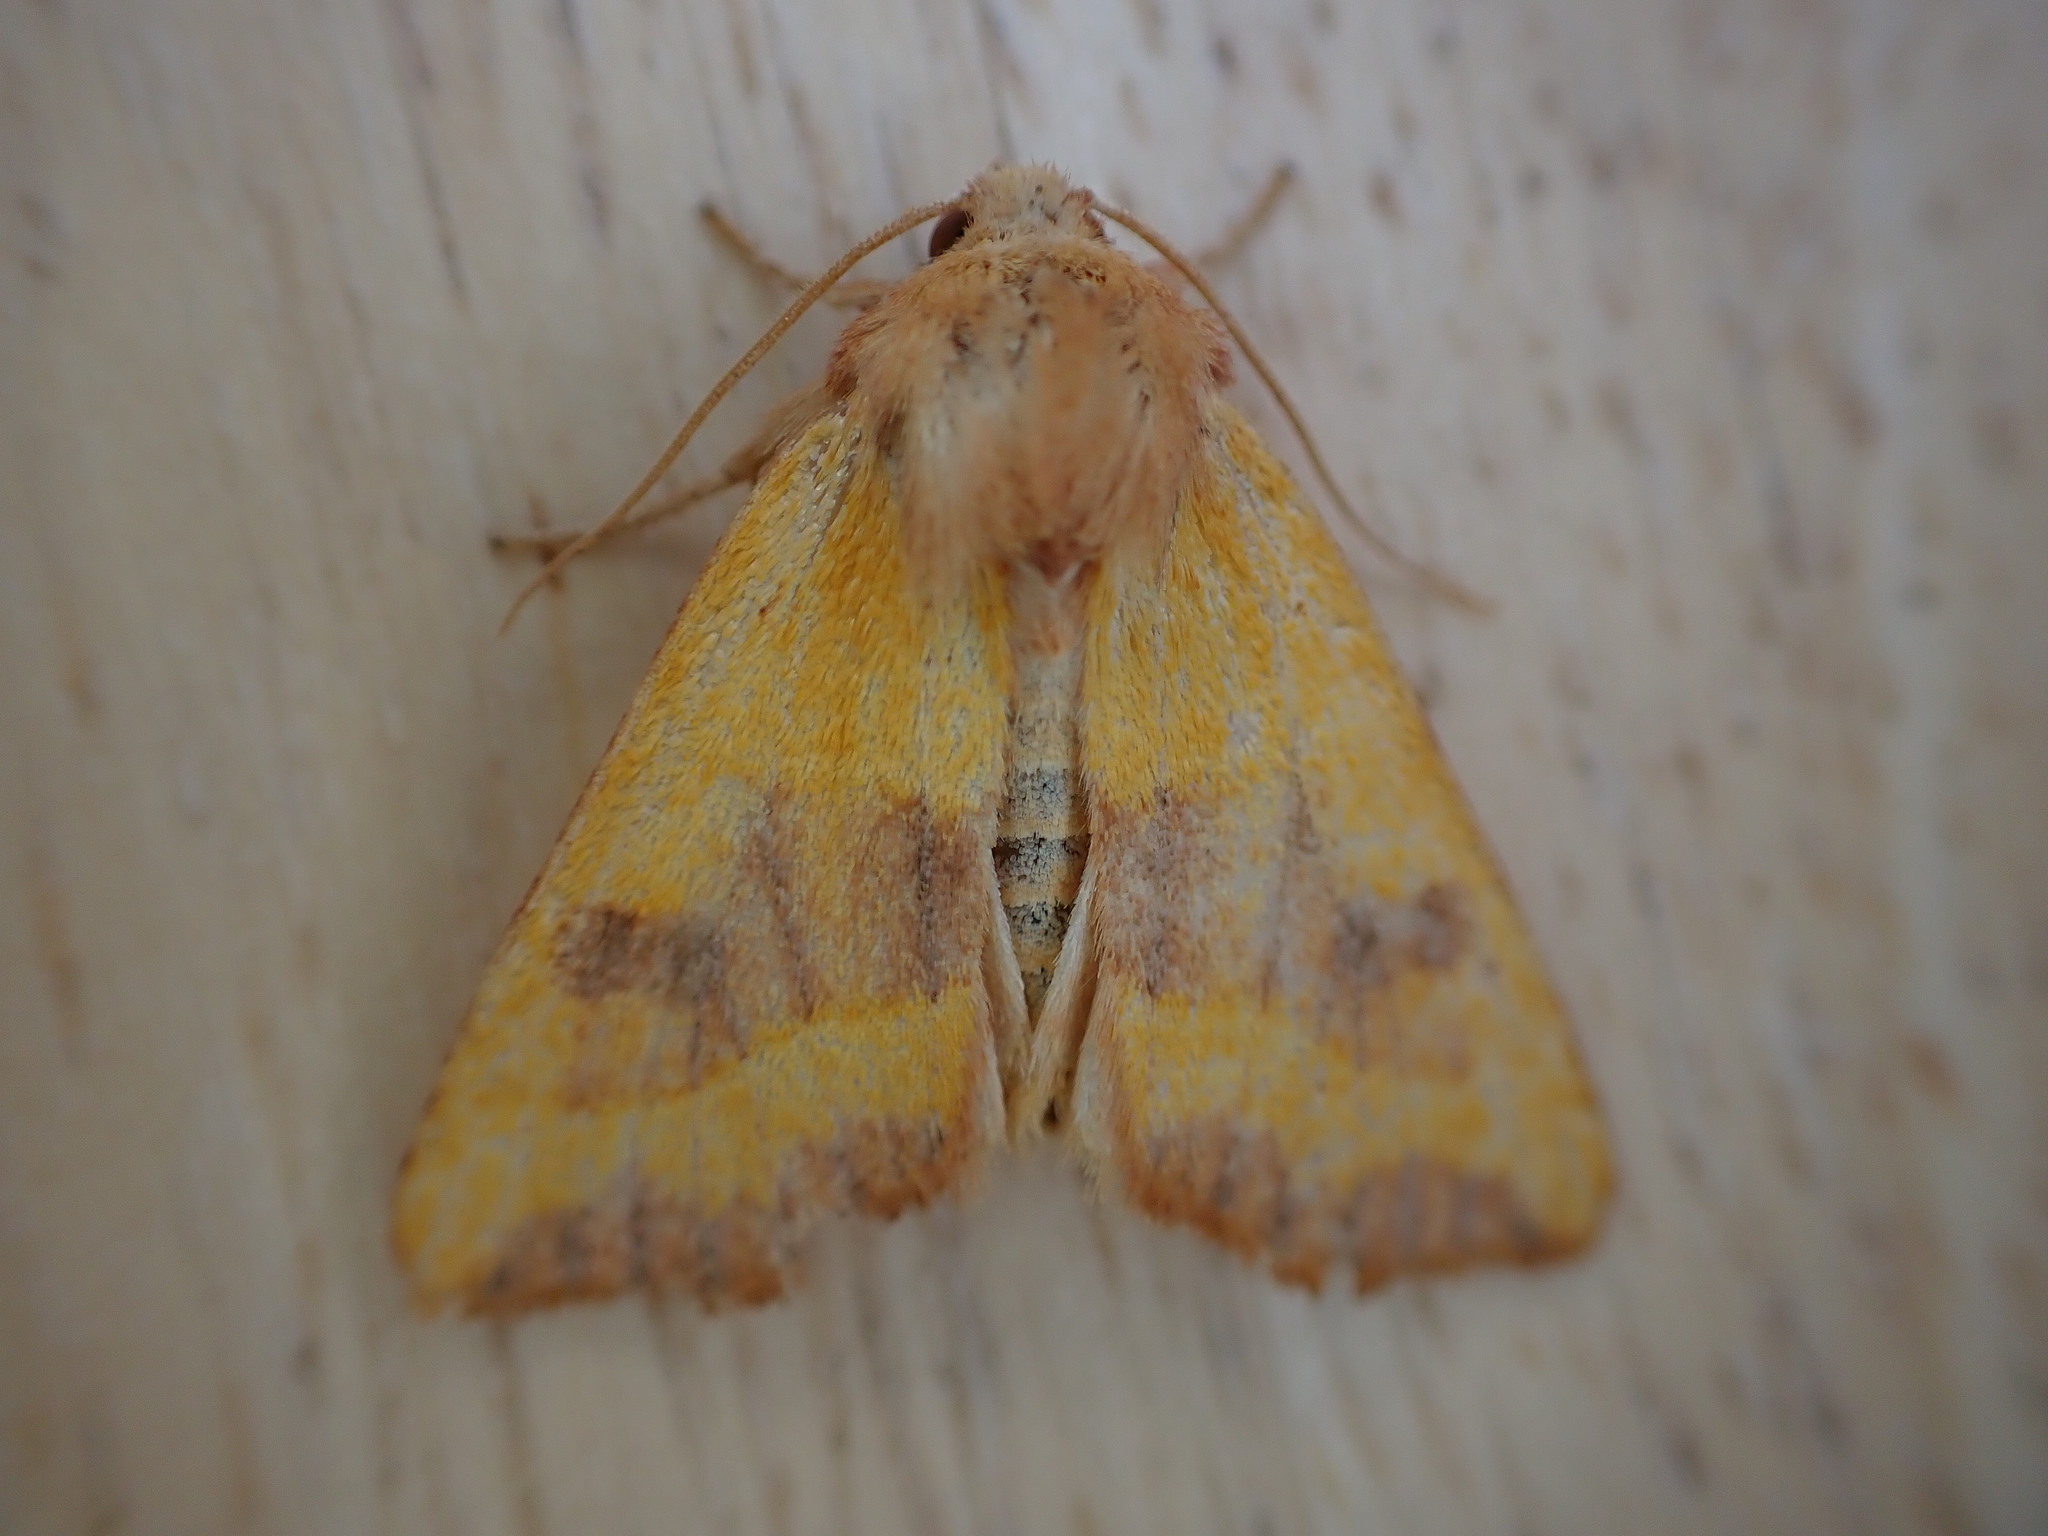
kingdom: Animalia
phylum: Arthropoda
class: Insecta
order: Lepidoptera
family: Noctuidae
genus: Atethmia
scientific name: Atethmia centrago
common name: Centre-barred sallow
